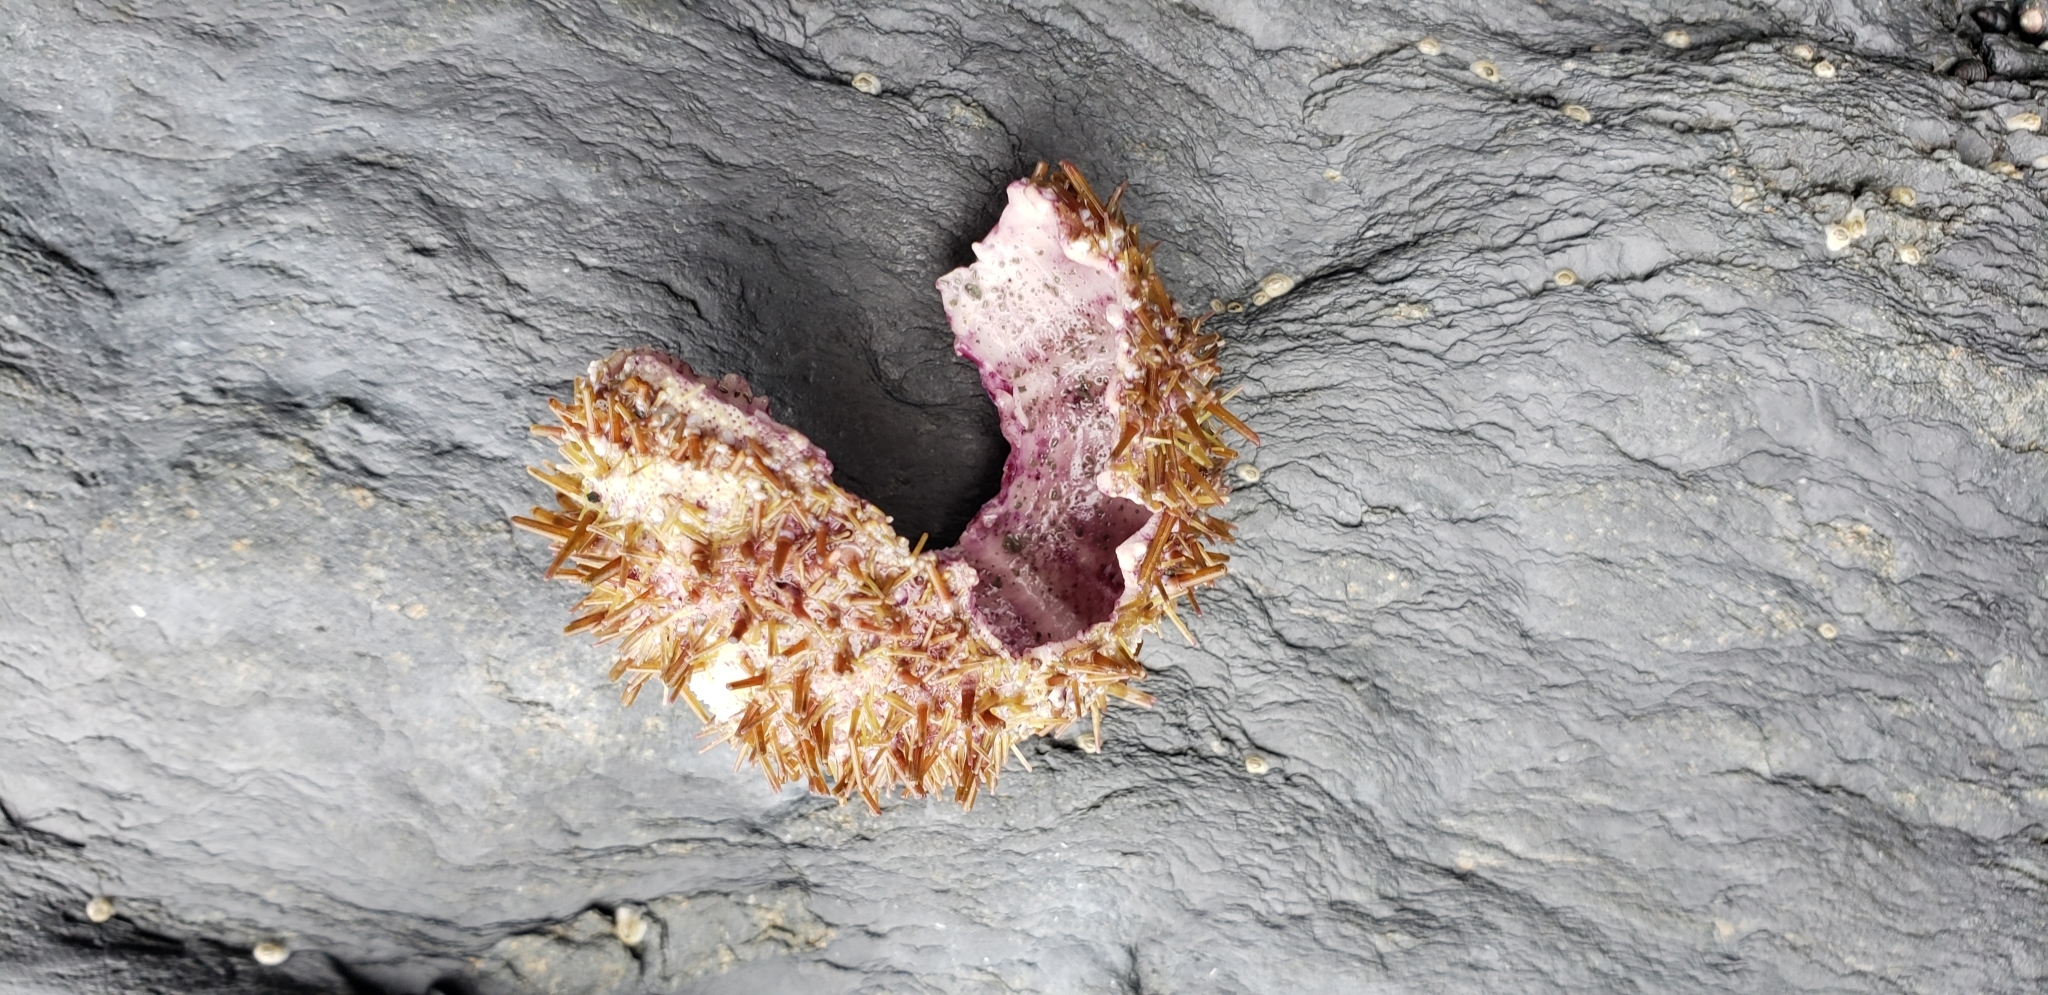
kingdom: Animalia
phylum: Echinodermata
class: Echinoidea
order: Camarodonta
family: Strongylocentrotidae
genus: Strongylocentrotus
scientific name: Strongylocentrotus droebachiensis
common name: Northern sea urchin
